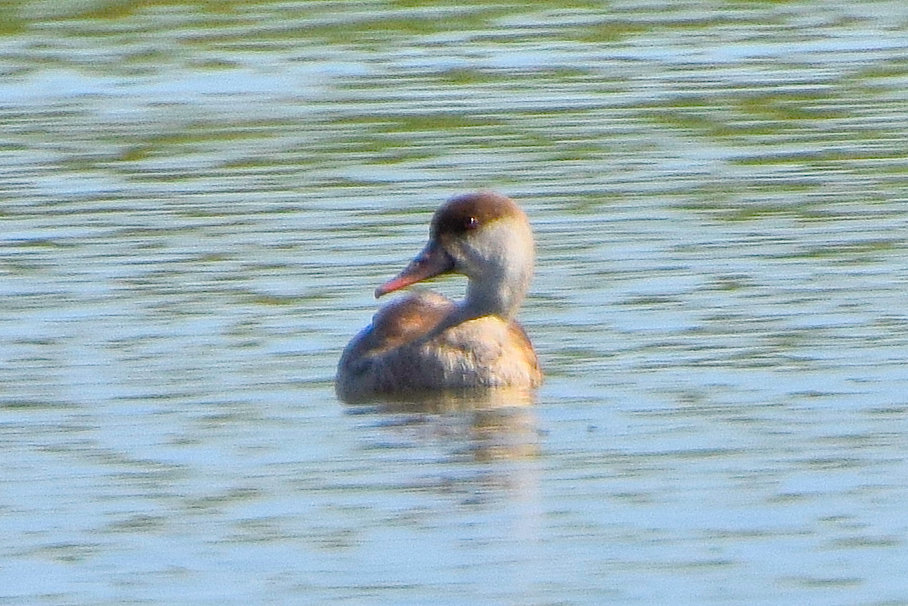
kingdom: Animalia
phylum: Chordata
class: Aves
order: Anseriformes
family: Anatidae
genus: Netta
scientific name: Netta rufina
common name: Red-crested pochard
